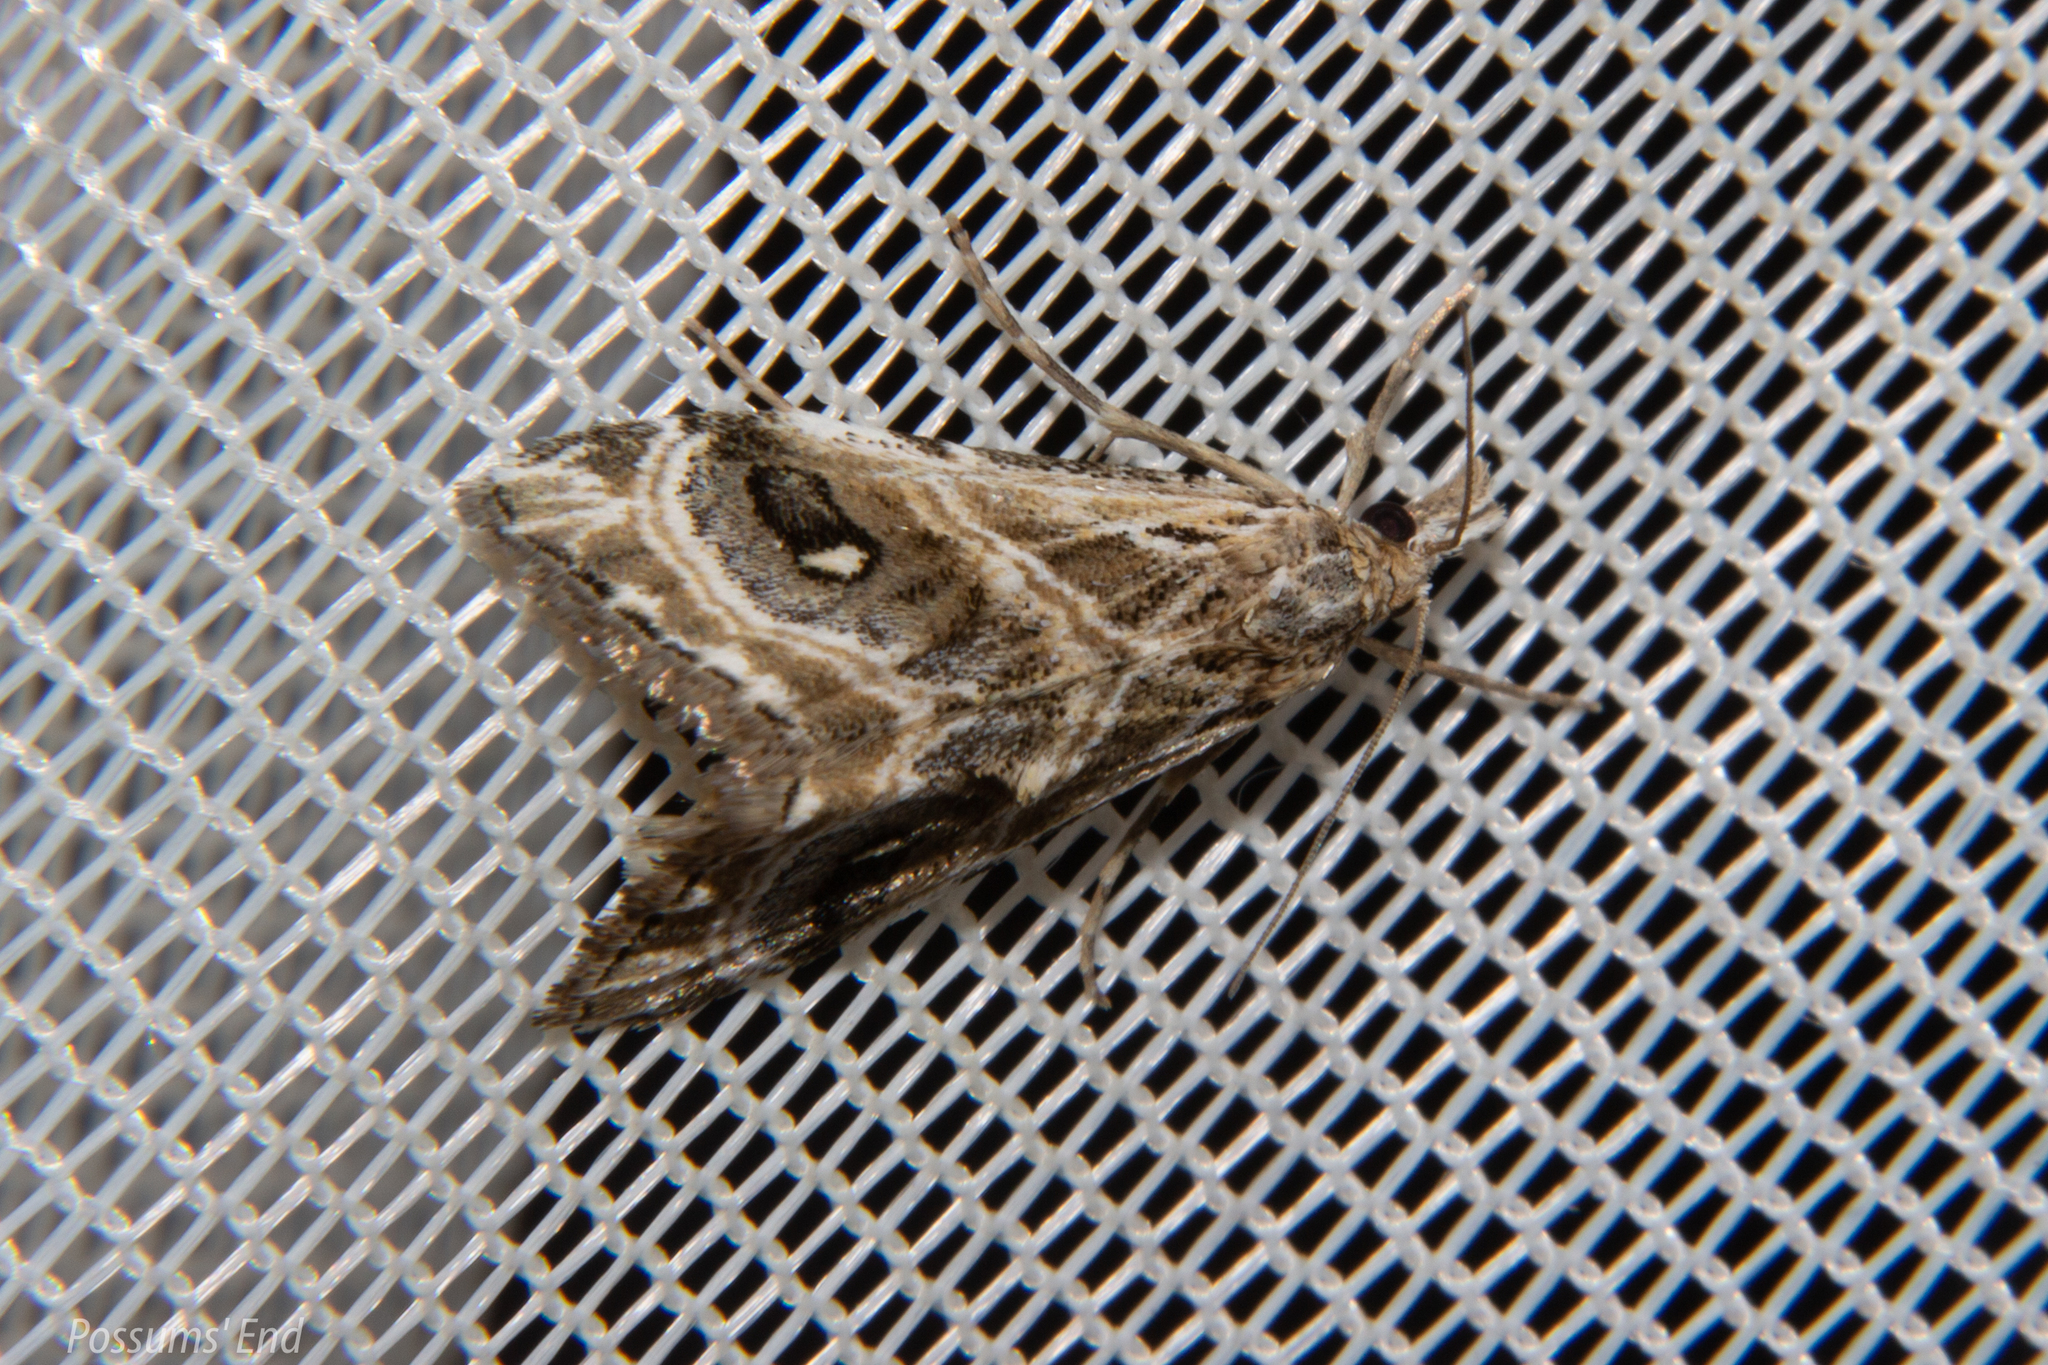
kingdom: Animalia
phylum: Arthropoda
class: Insecta
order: Lepidoptera
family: Crambidae
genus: Gadira
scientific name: Gadira acerella
